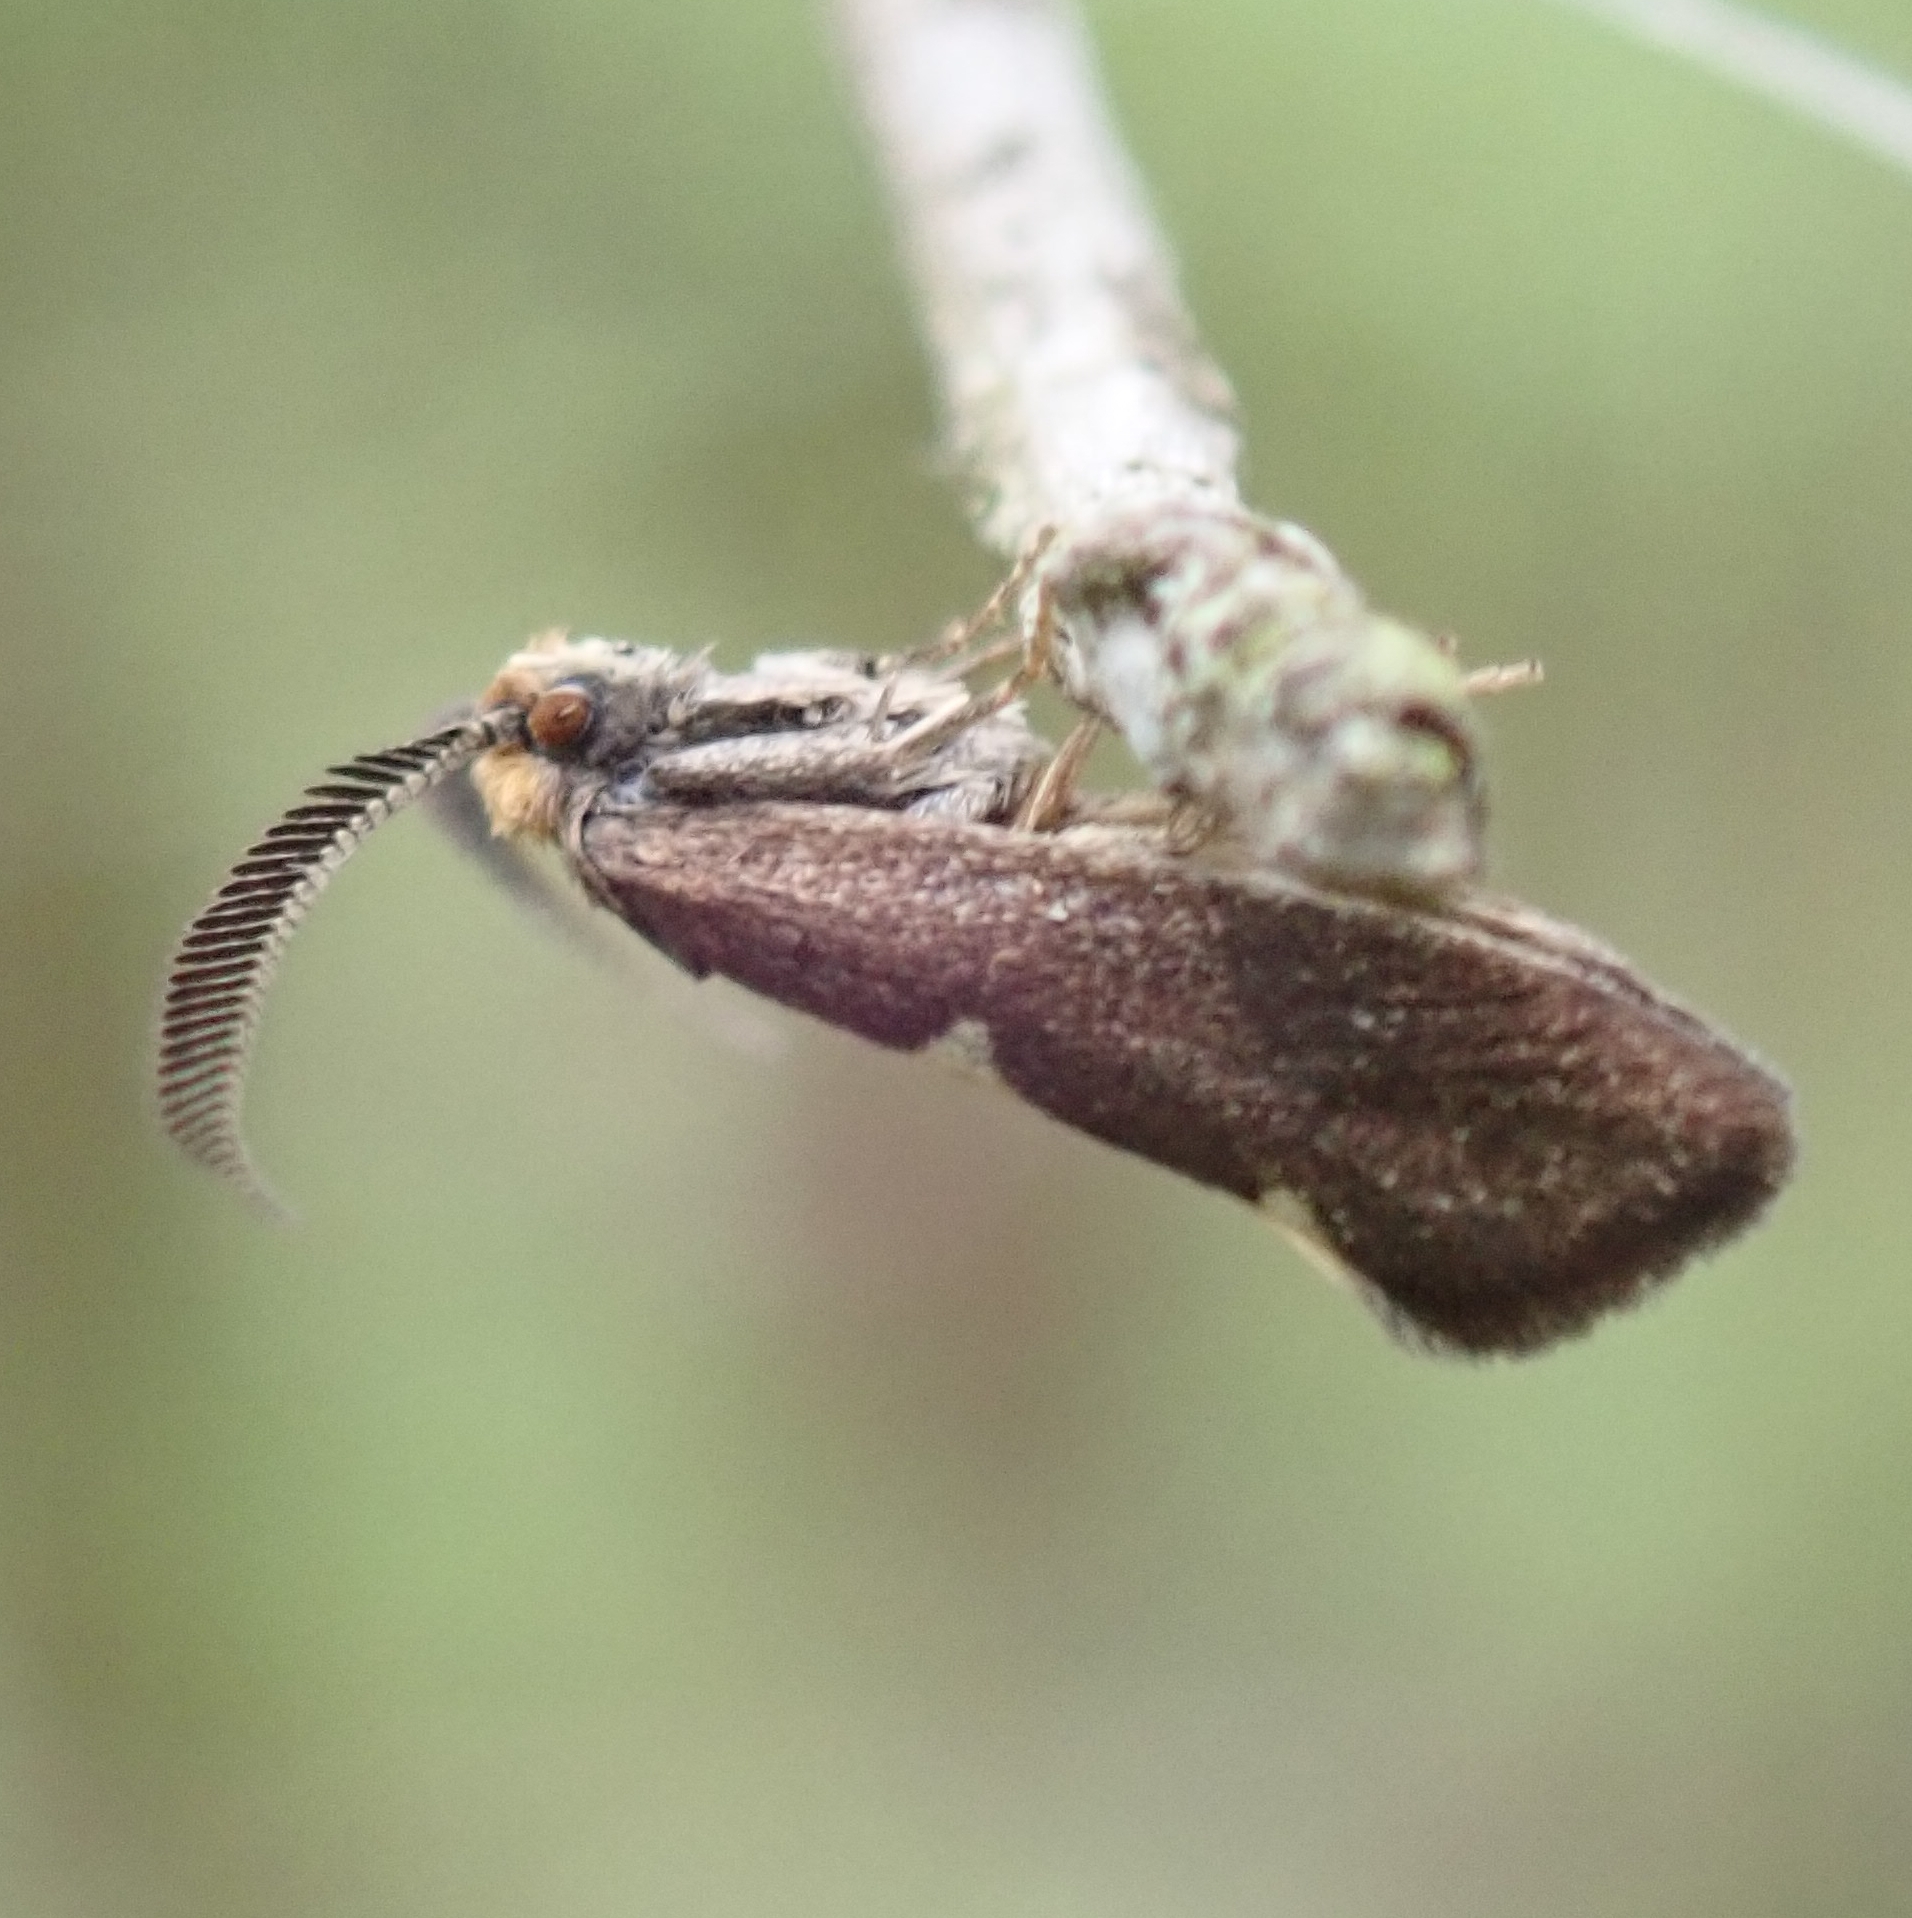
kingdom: Animalia
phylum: Arthropoda
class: Insecta
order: Lepidoptera
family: Incurvariidae
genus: Incurvaria
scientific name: Incurvaria masculella
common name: Feathered leaf-cutter
